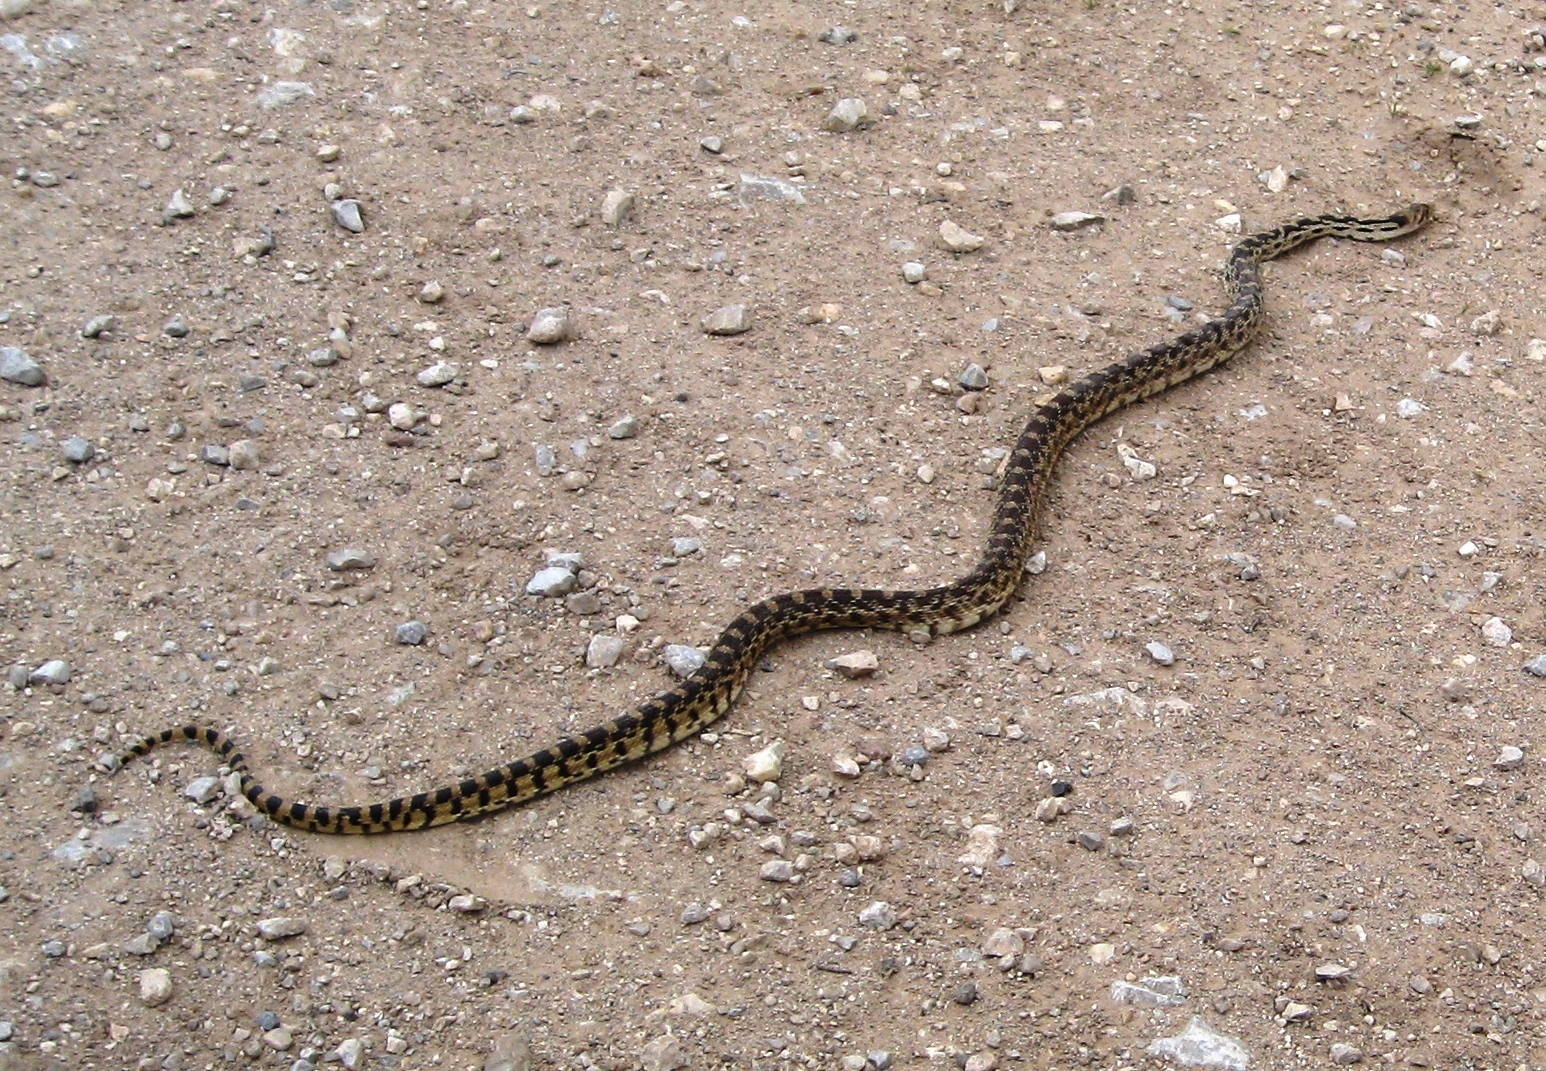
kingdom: Animalia
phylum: Chordata
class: Squamata
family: Colubridae
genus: Pituophis
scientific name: Pituophis catenifer
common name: Gopher snake
